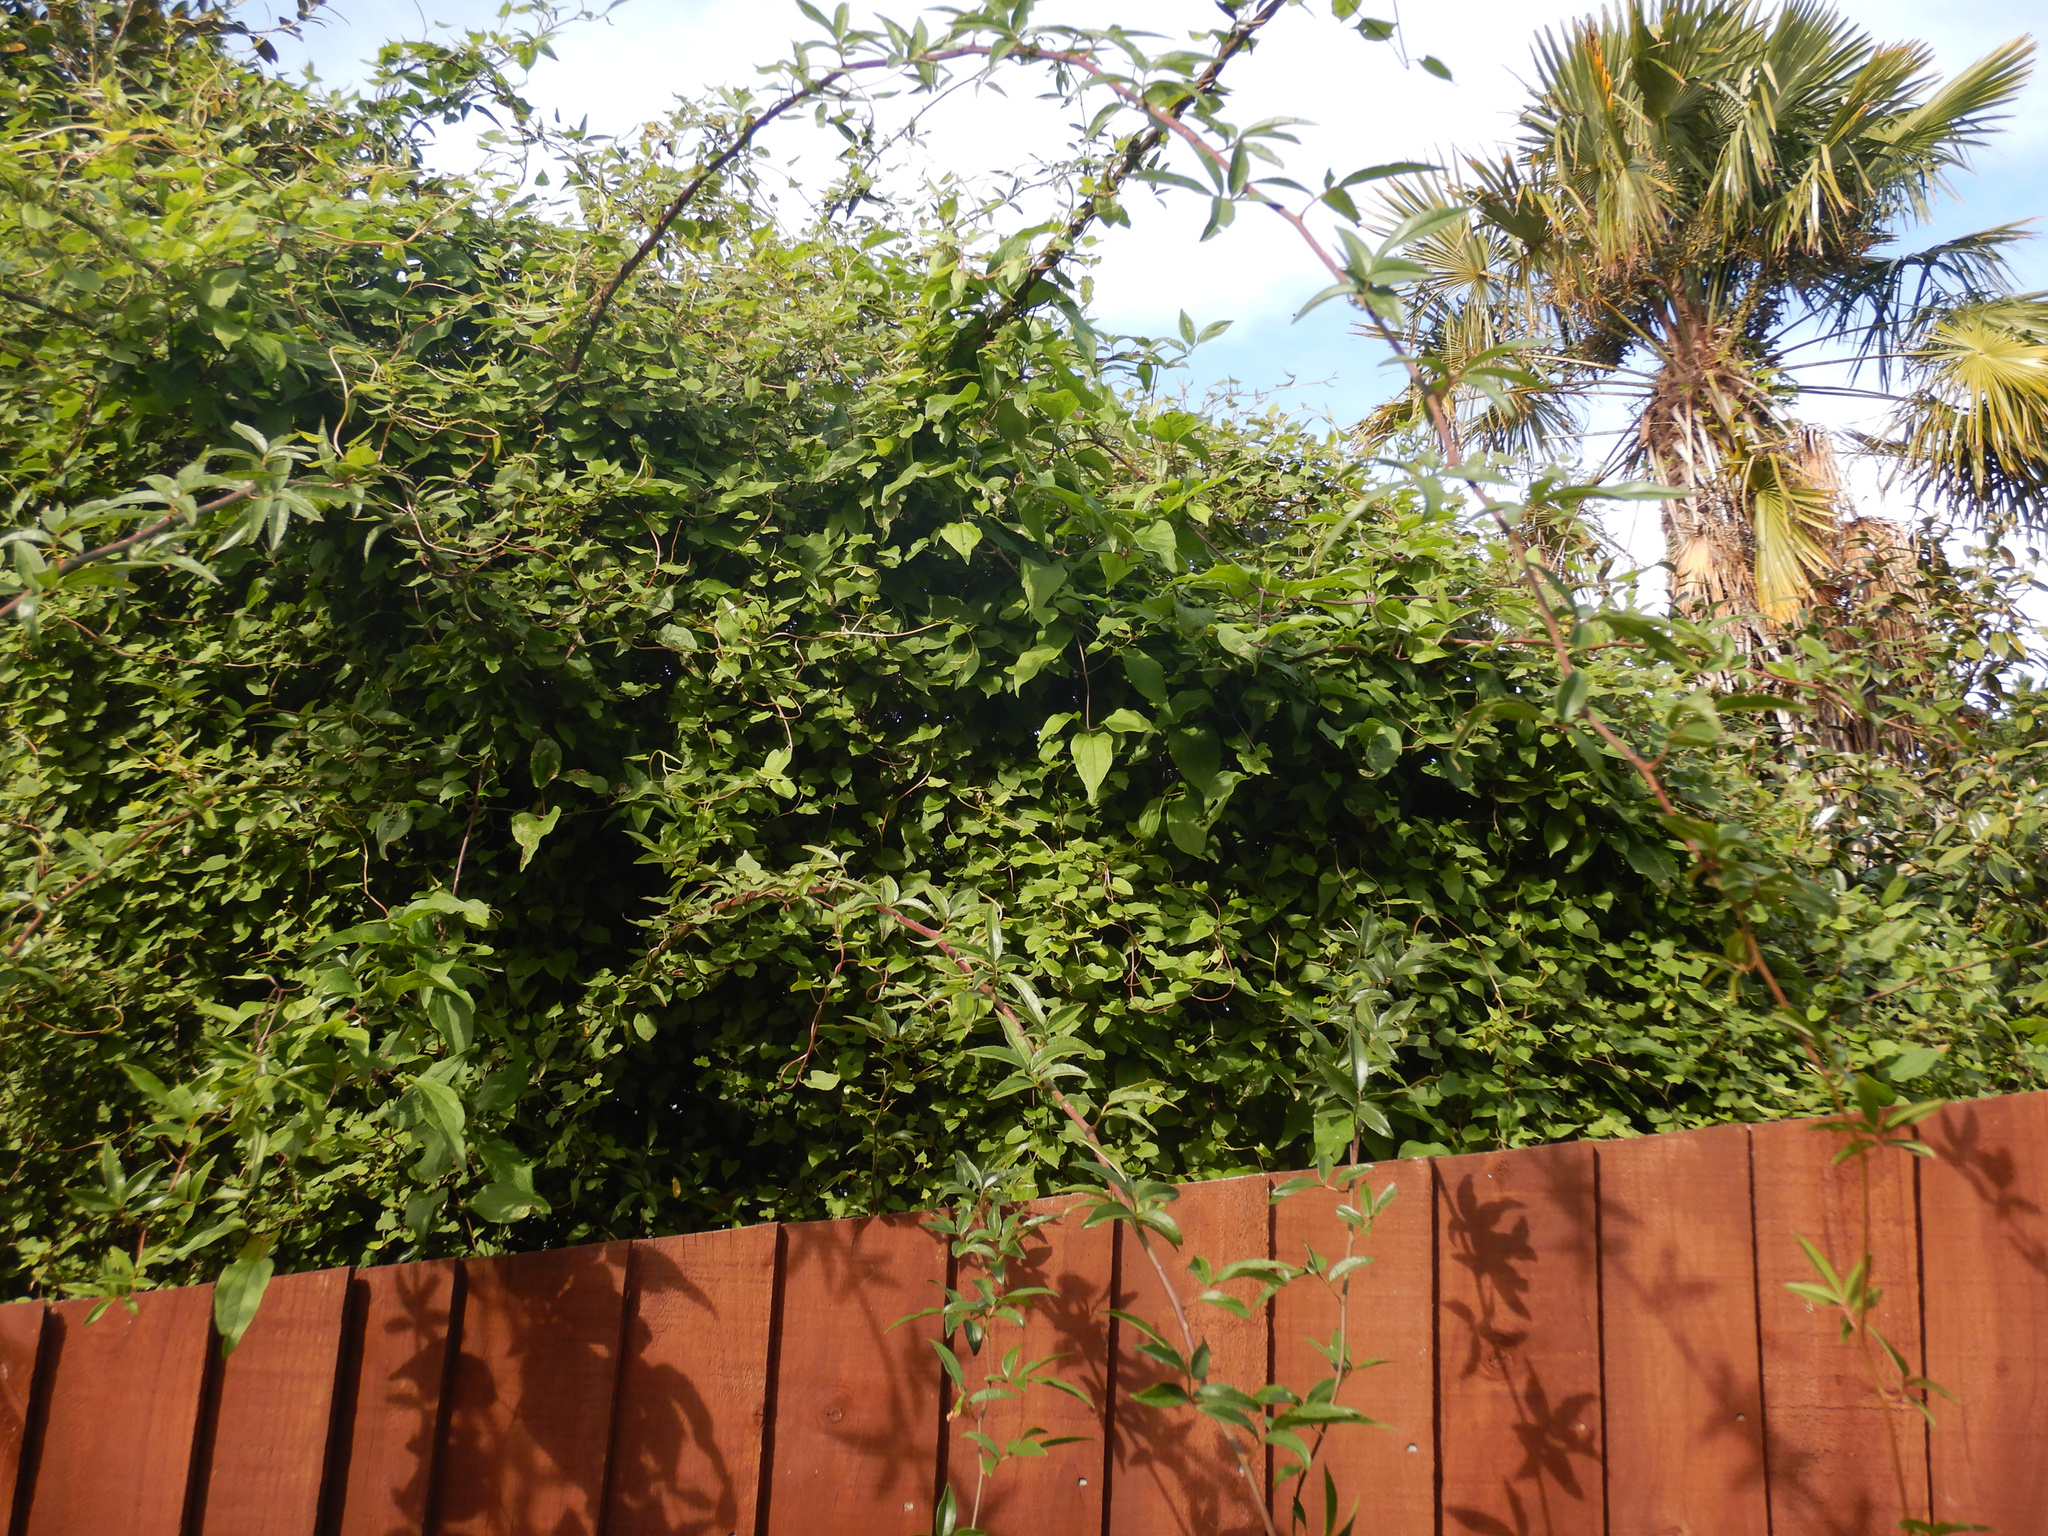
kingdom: Plantae
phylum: Tracheophyta
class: Magnoliopsida
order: Caryophyllales
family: Polygonaceae
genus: Muehlenbeckia
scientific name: Muehlenbeckia australis
